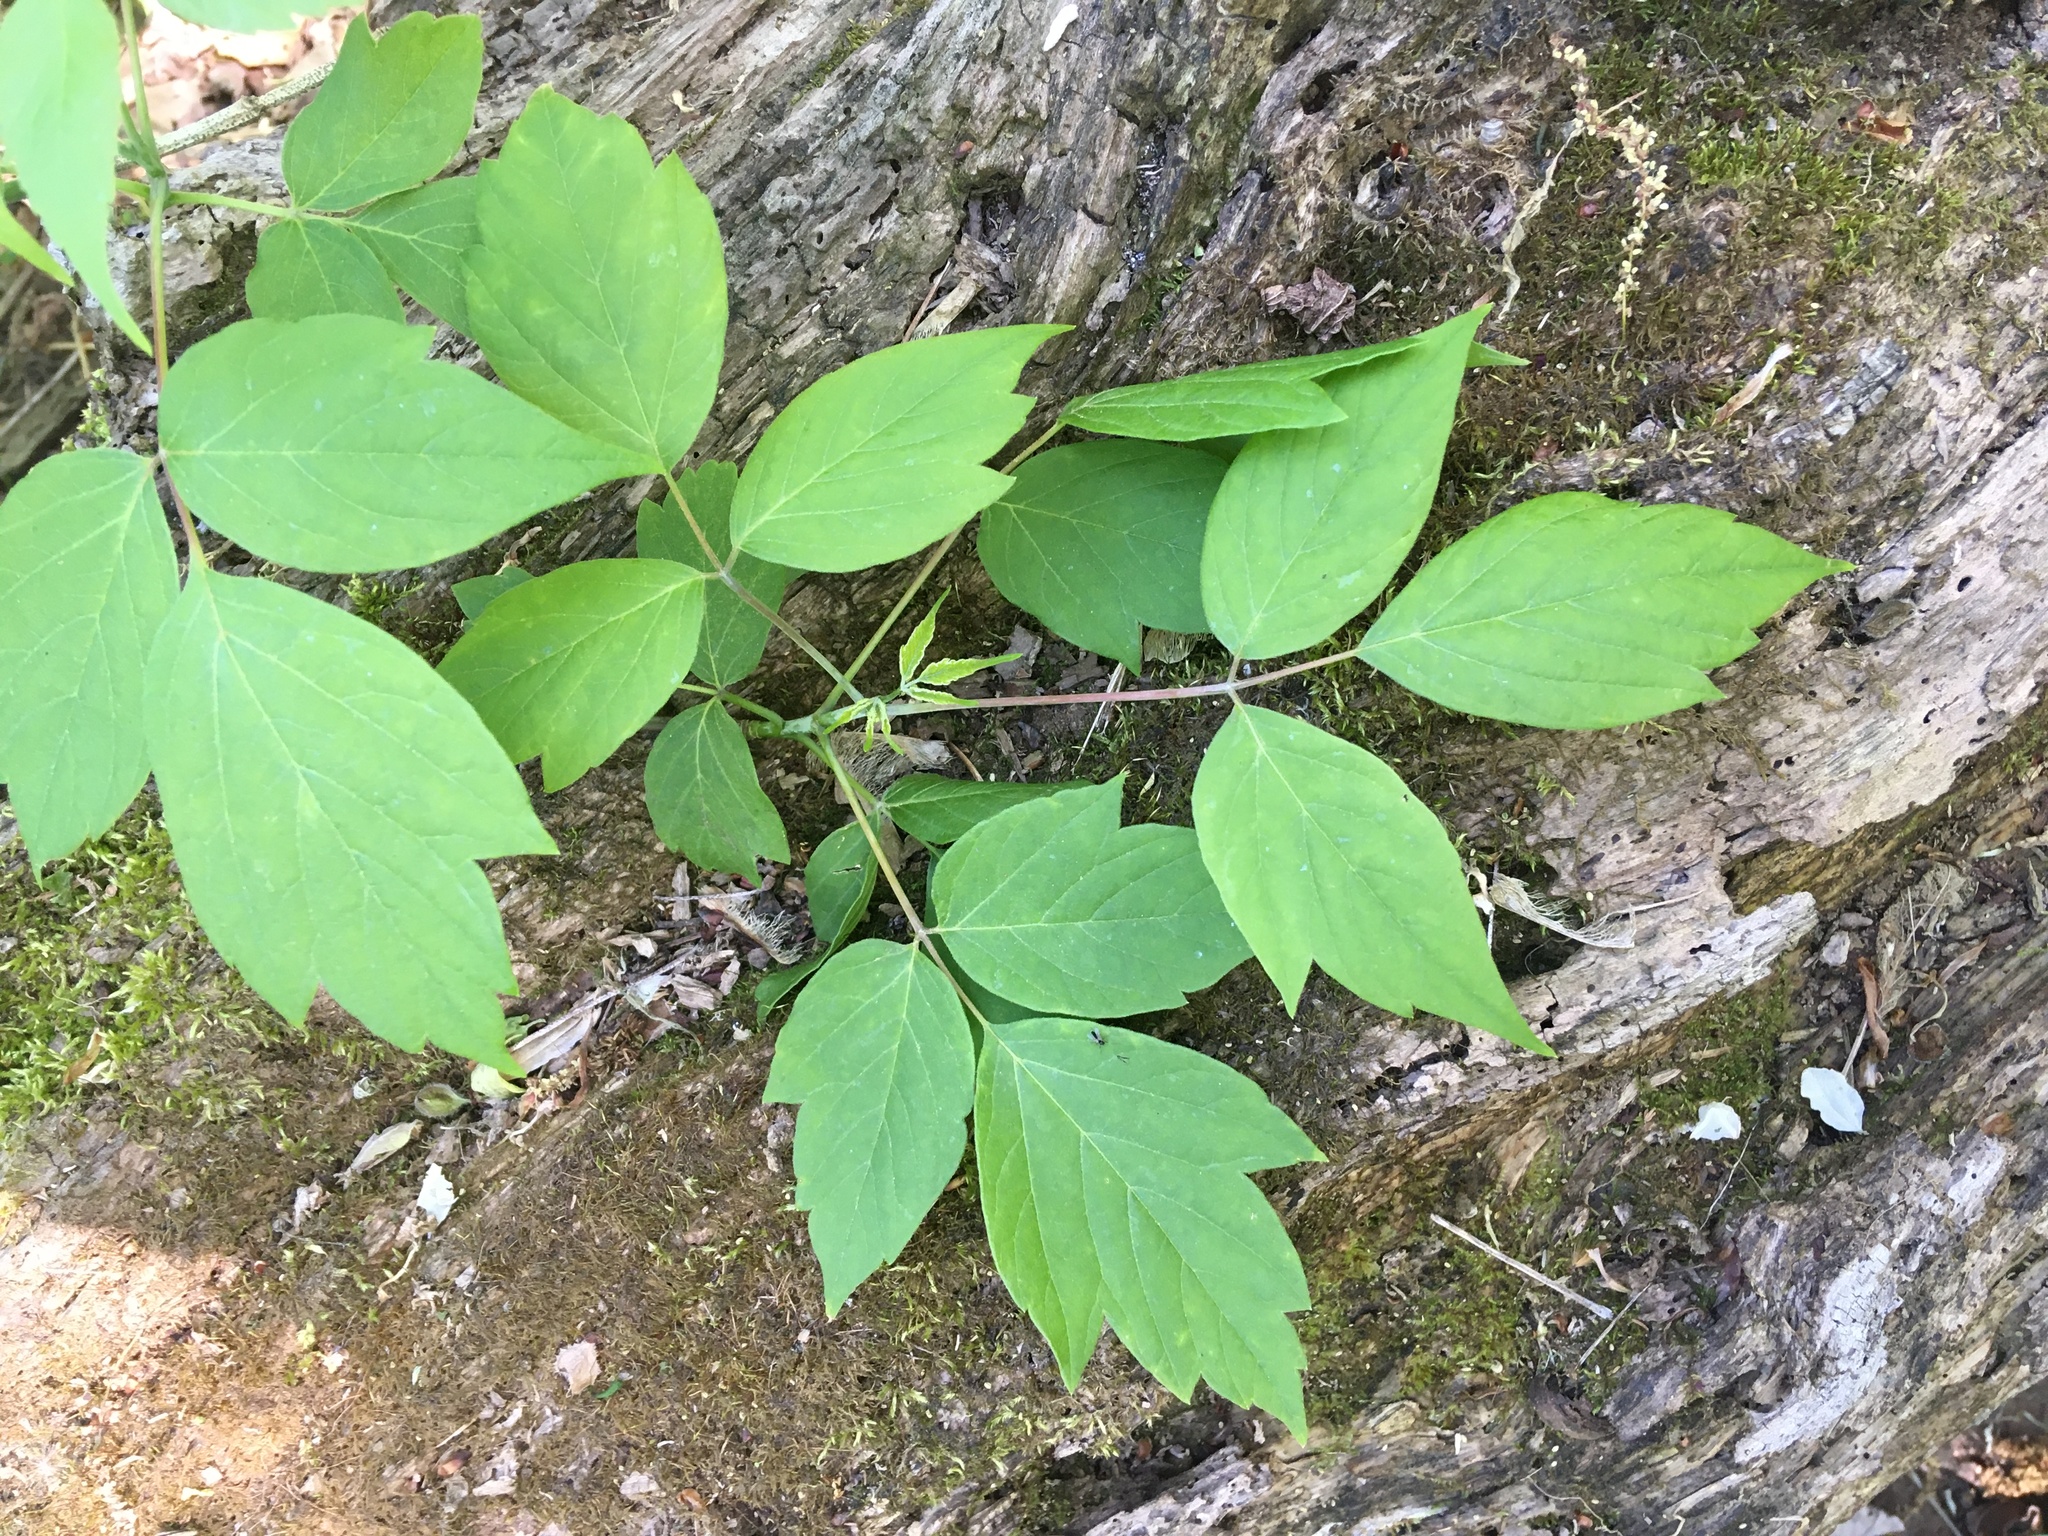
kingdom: Plantae
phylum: Tracheophyta
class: Magnoliopsida
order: Sapindales
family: Sapindaceae
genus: Acer
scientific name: Acer negundo
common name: Ashleaf maple
